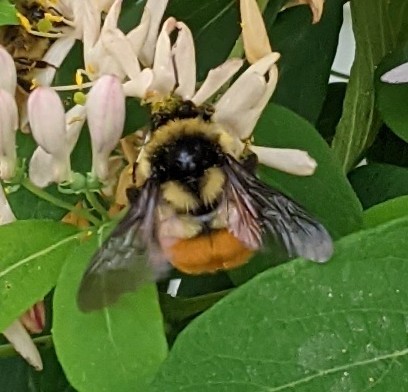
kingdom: Animalia
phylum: Arthropoda
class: Insecta
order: Hymenoptera
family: Apidae
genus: Bombus
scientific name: Bombus ternarius
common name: Tri-colored bumble bee
